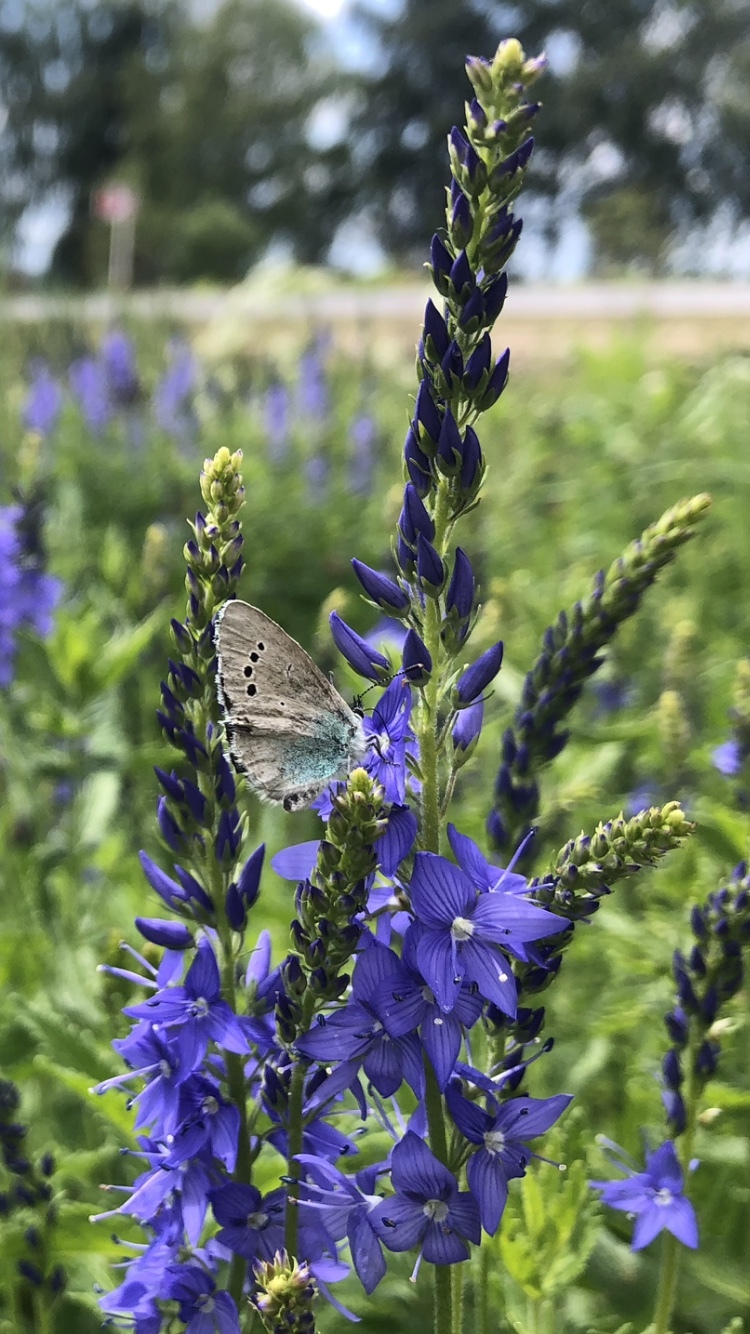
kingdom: Animalia
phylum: Arthropoda
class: Insecta
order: Lepidoptera
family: Lycaenidae
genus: Glaucopsyche
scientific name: Glaucopsyche alexis
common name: Green-underside blue
